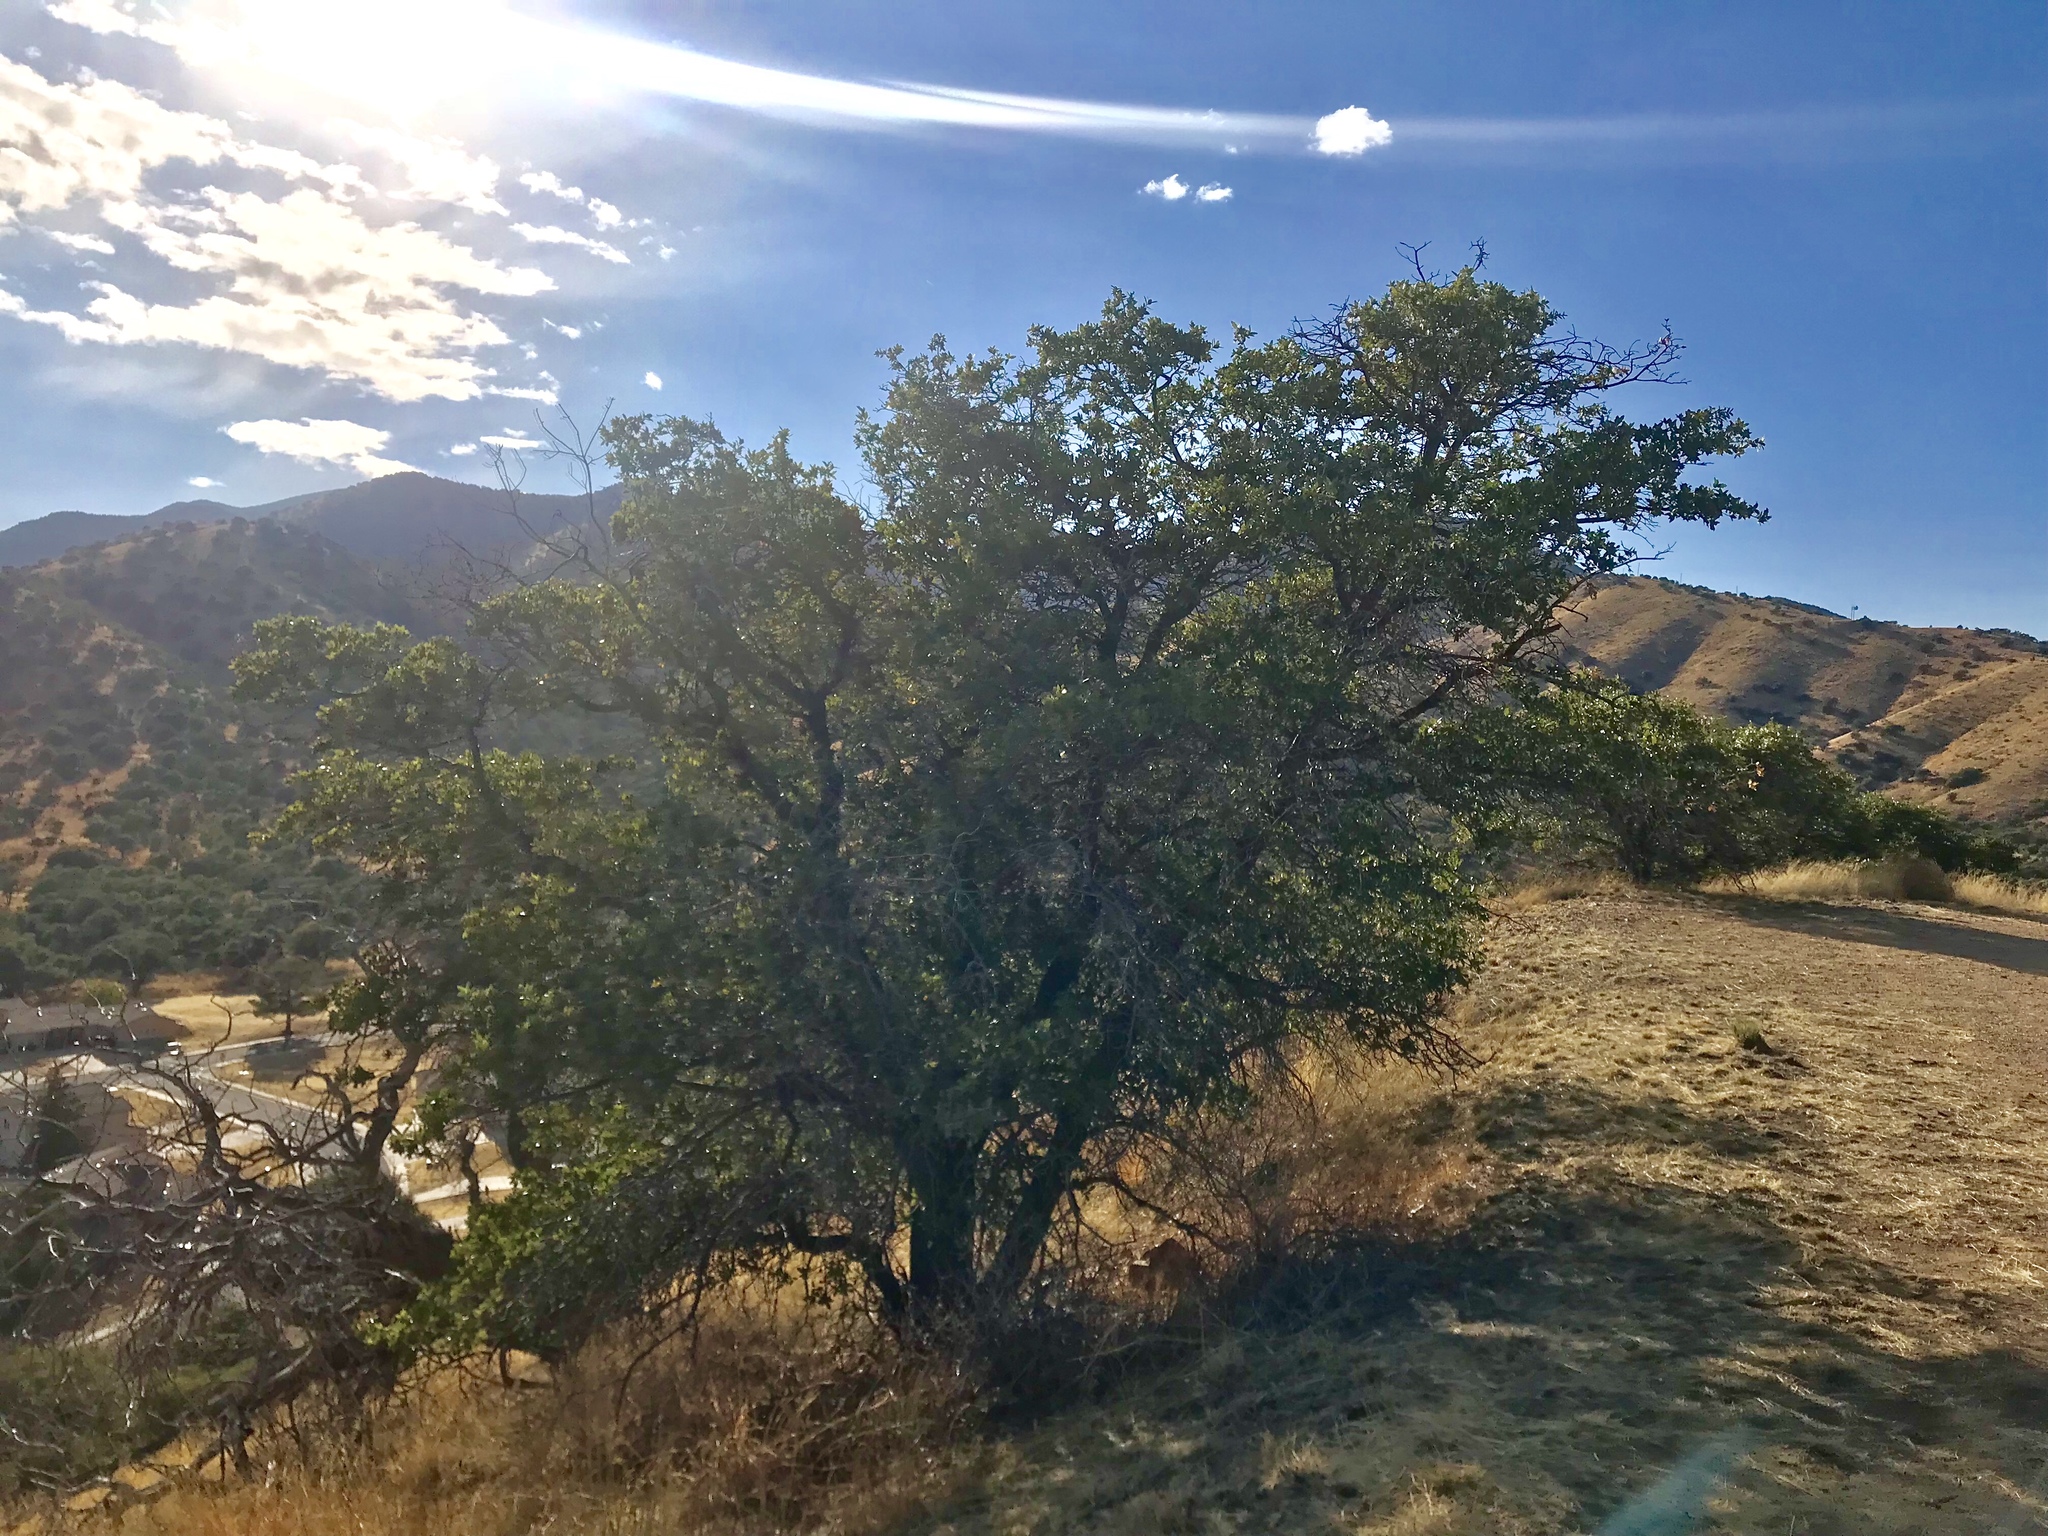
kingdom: Plantae
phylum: Tracheophyta
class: Magnoliopsida
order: Fagales
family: Fagaceae
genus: Quercus
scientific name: Quercus emoryi
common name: Emory oak
